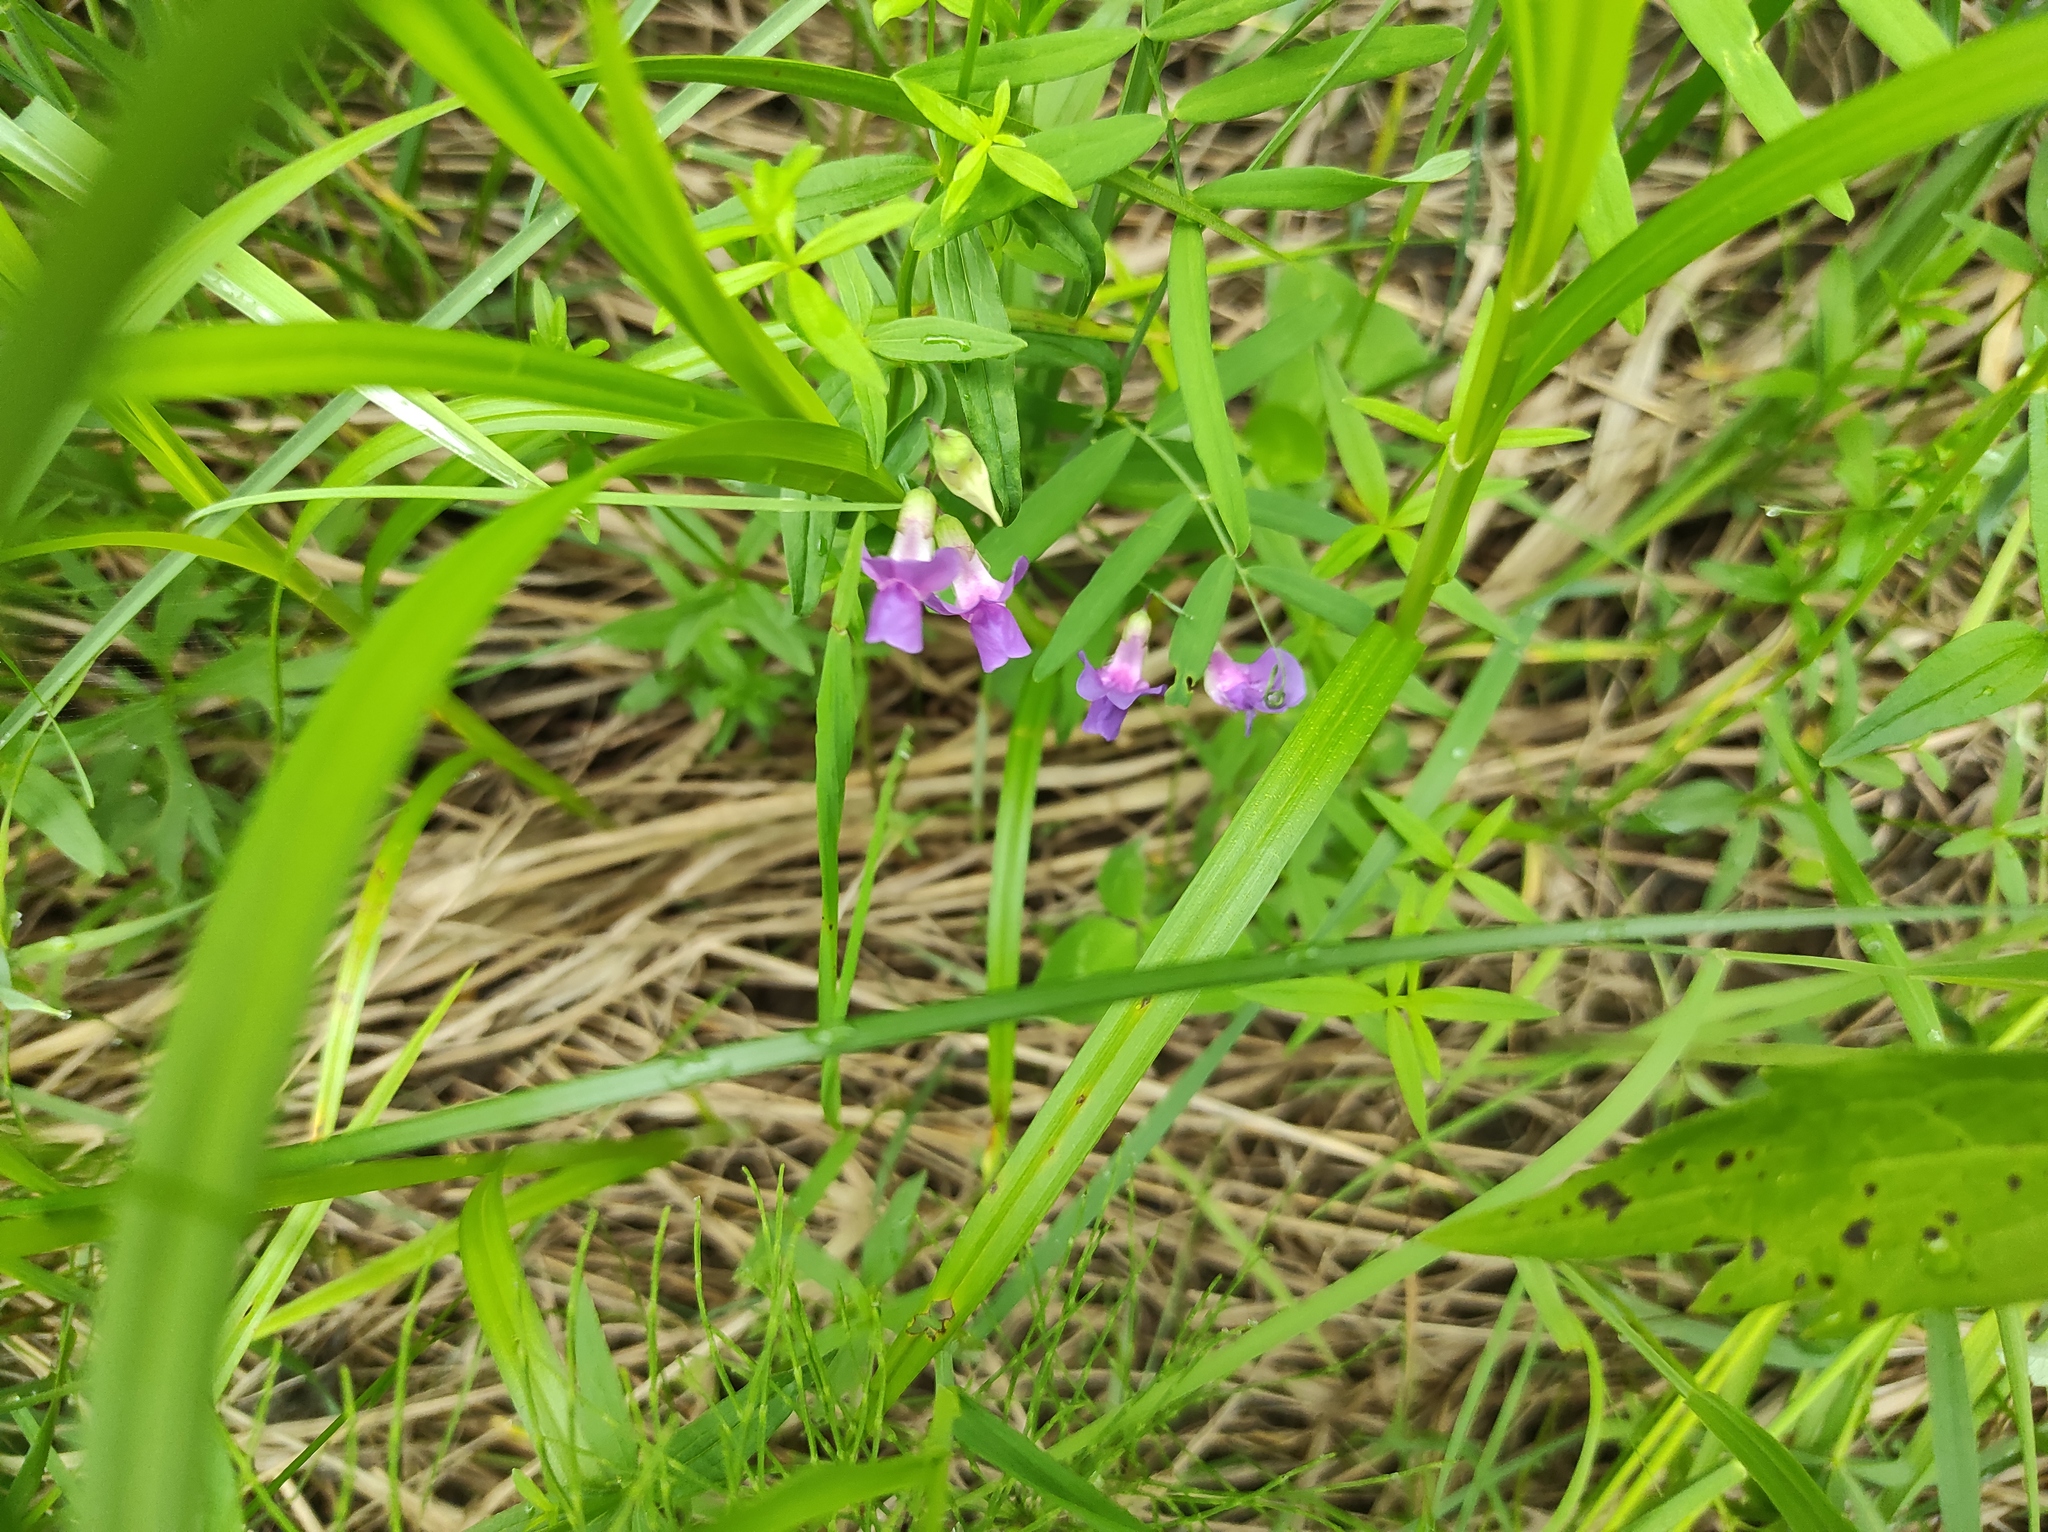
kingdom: Plantae
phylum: Tracheophyta
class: Magnoliopsida
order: Fabales
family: Fabaceae
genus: Lathyrus
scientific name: Lathyrus palustris
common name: Marsh pea
